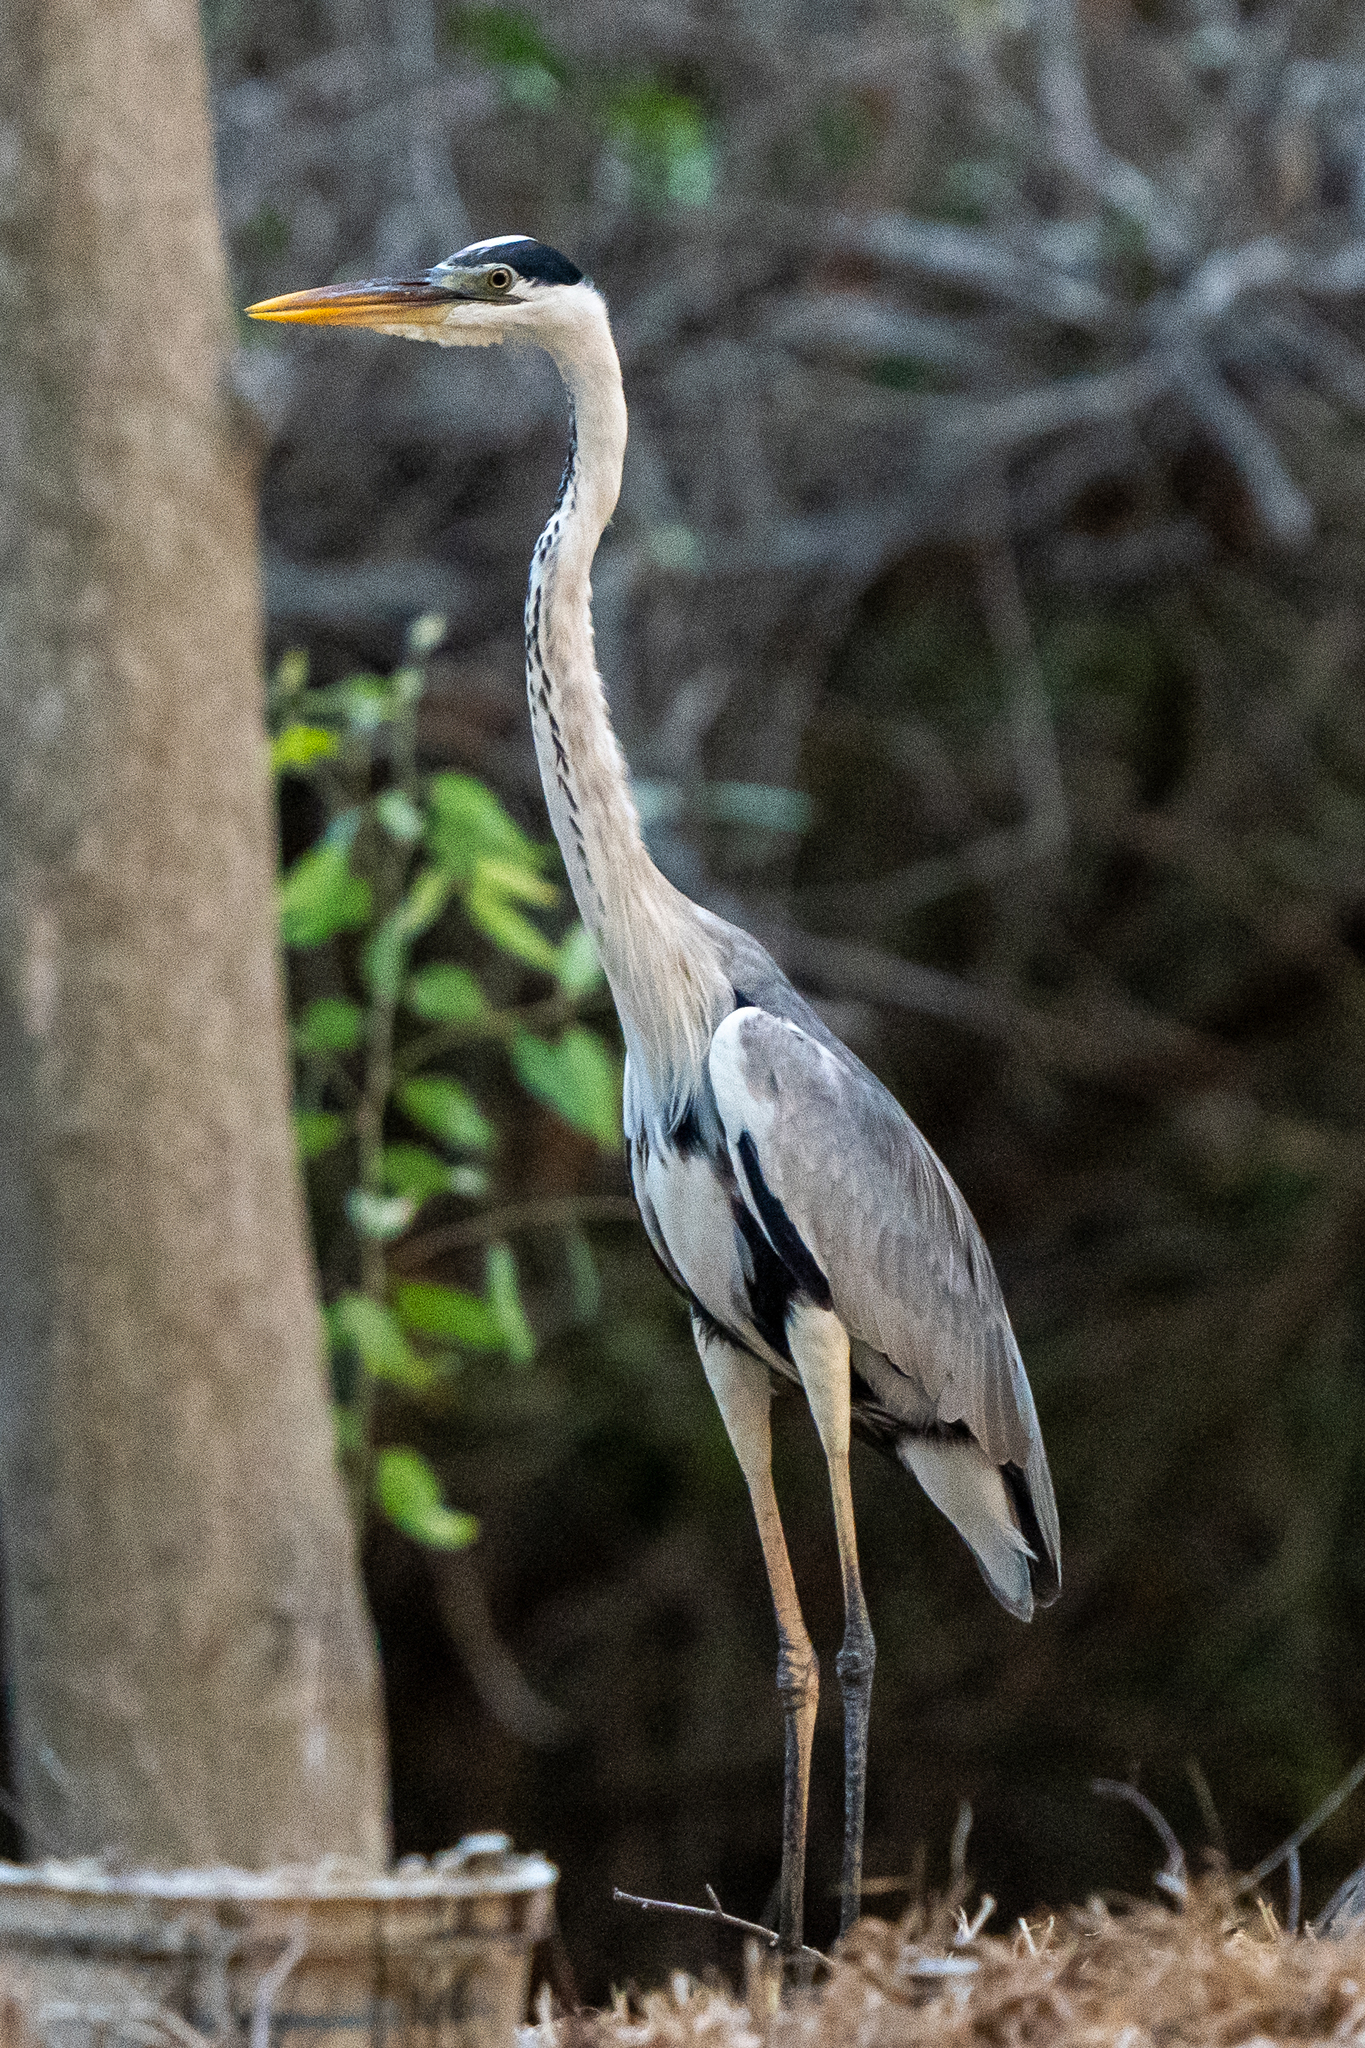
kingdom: Animalia
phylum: Chordata
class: Aves
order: Pelecaniformes
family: Ardeidae
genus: Ardea
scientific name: Ardea cocoi
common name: Cocoi heron
